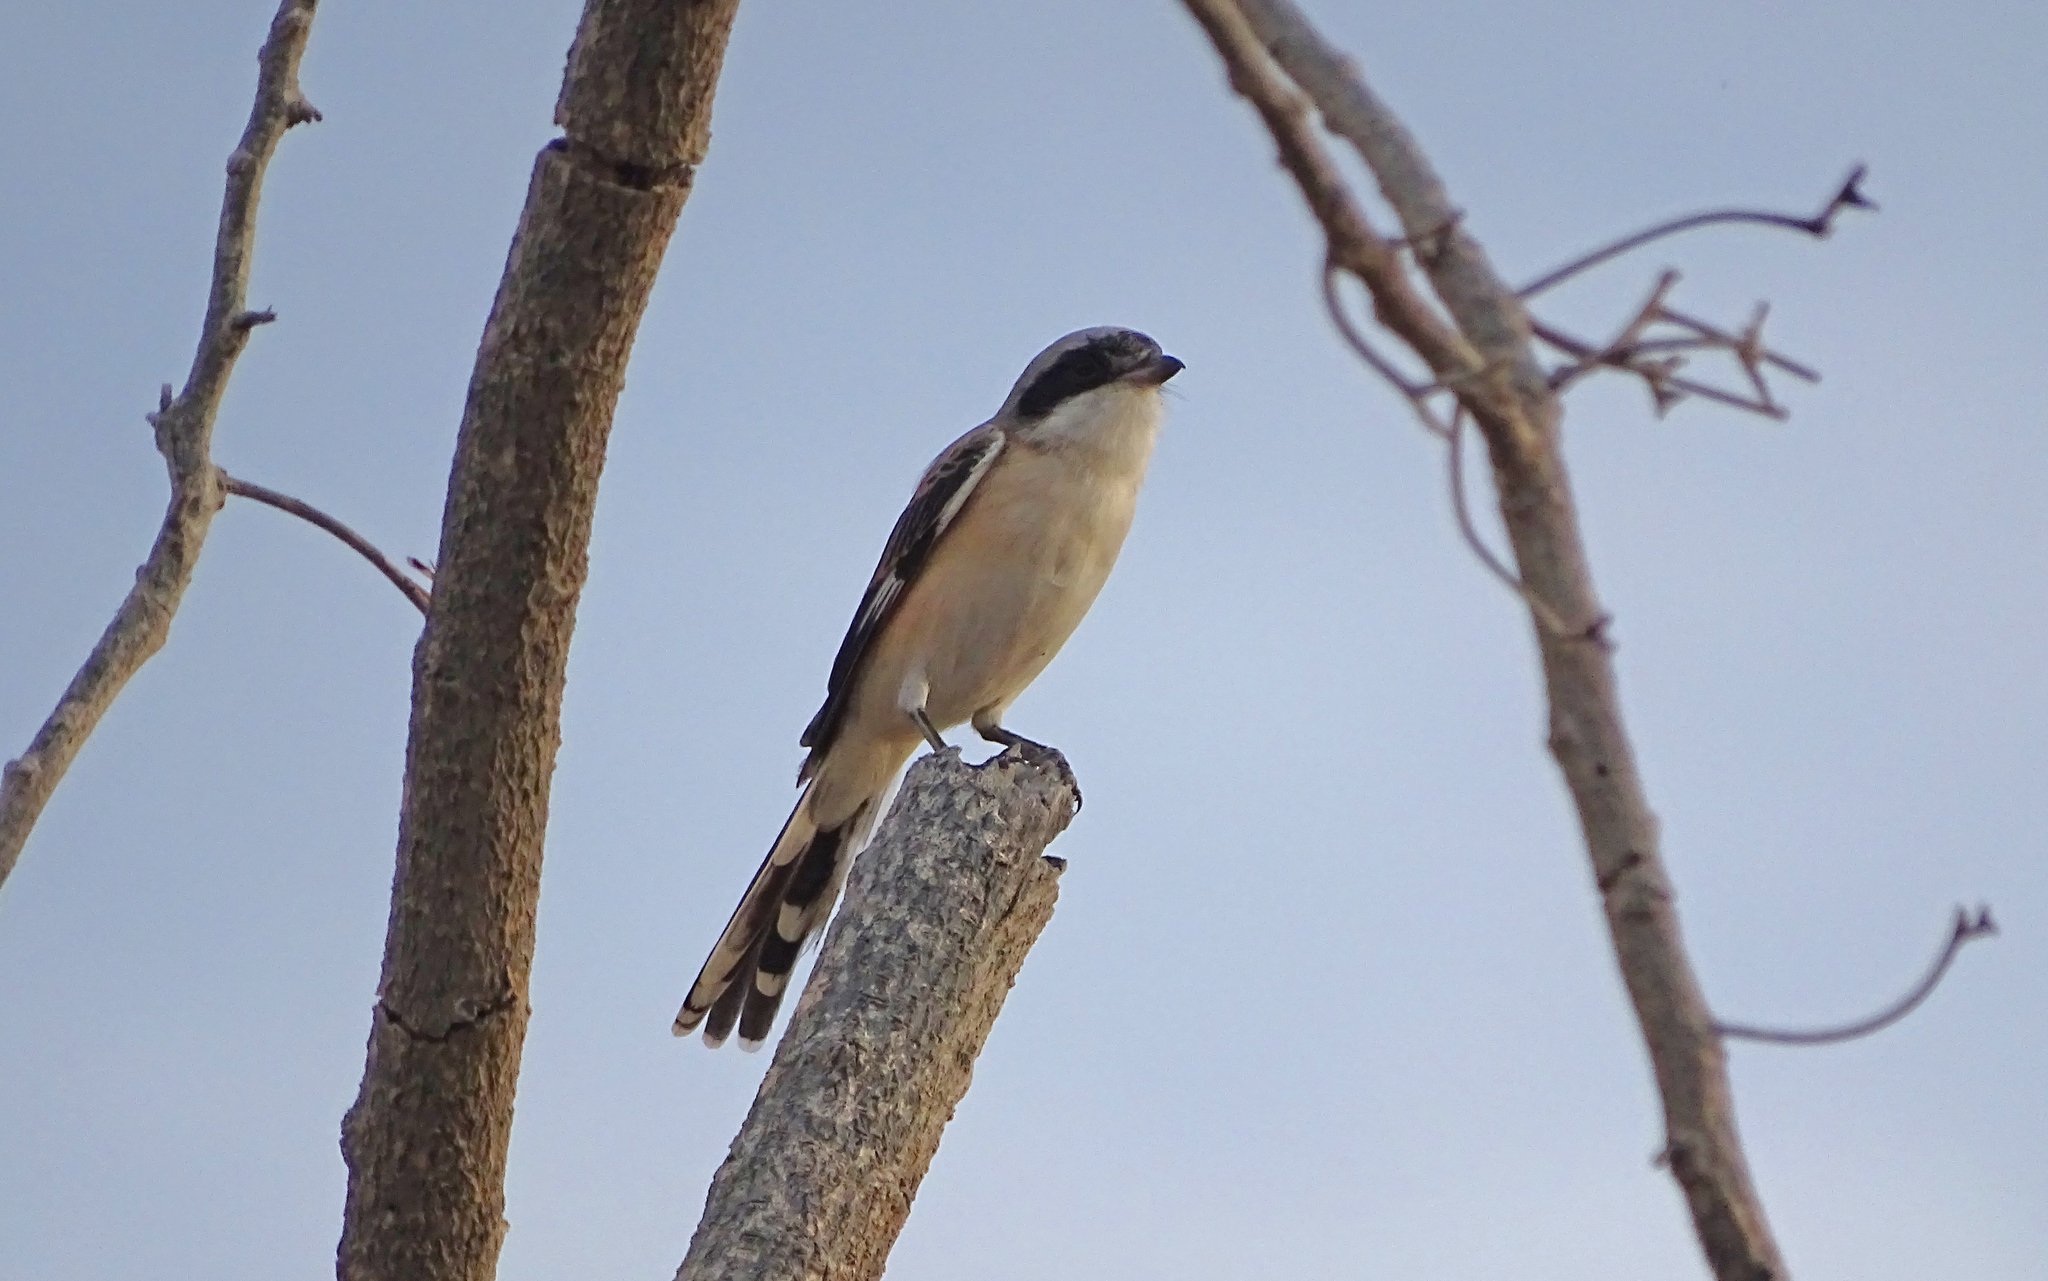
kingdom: Animalia
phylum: Chordata
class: Aves
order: Passeriformes
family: Laniidae
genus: Lanius
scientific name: Lanius vittatus
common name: Bay-backed shrike
